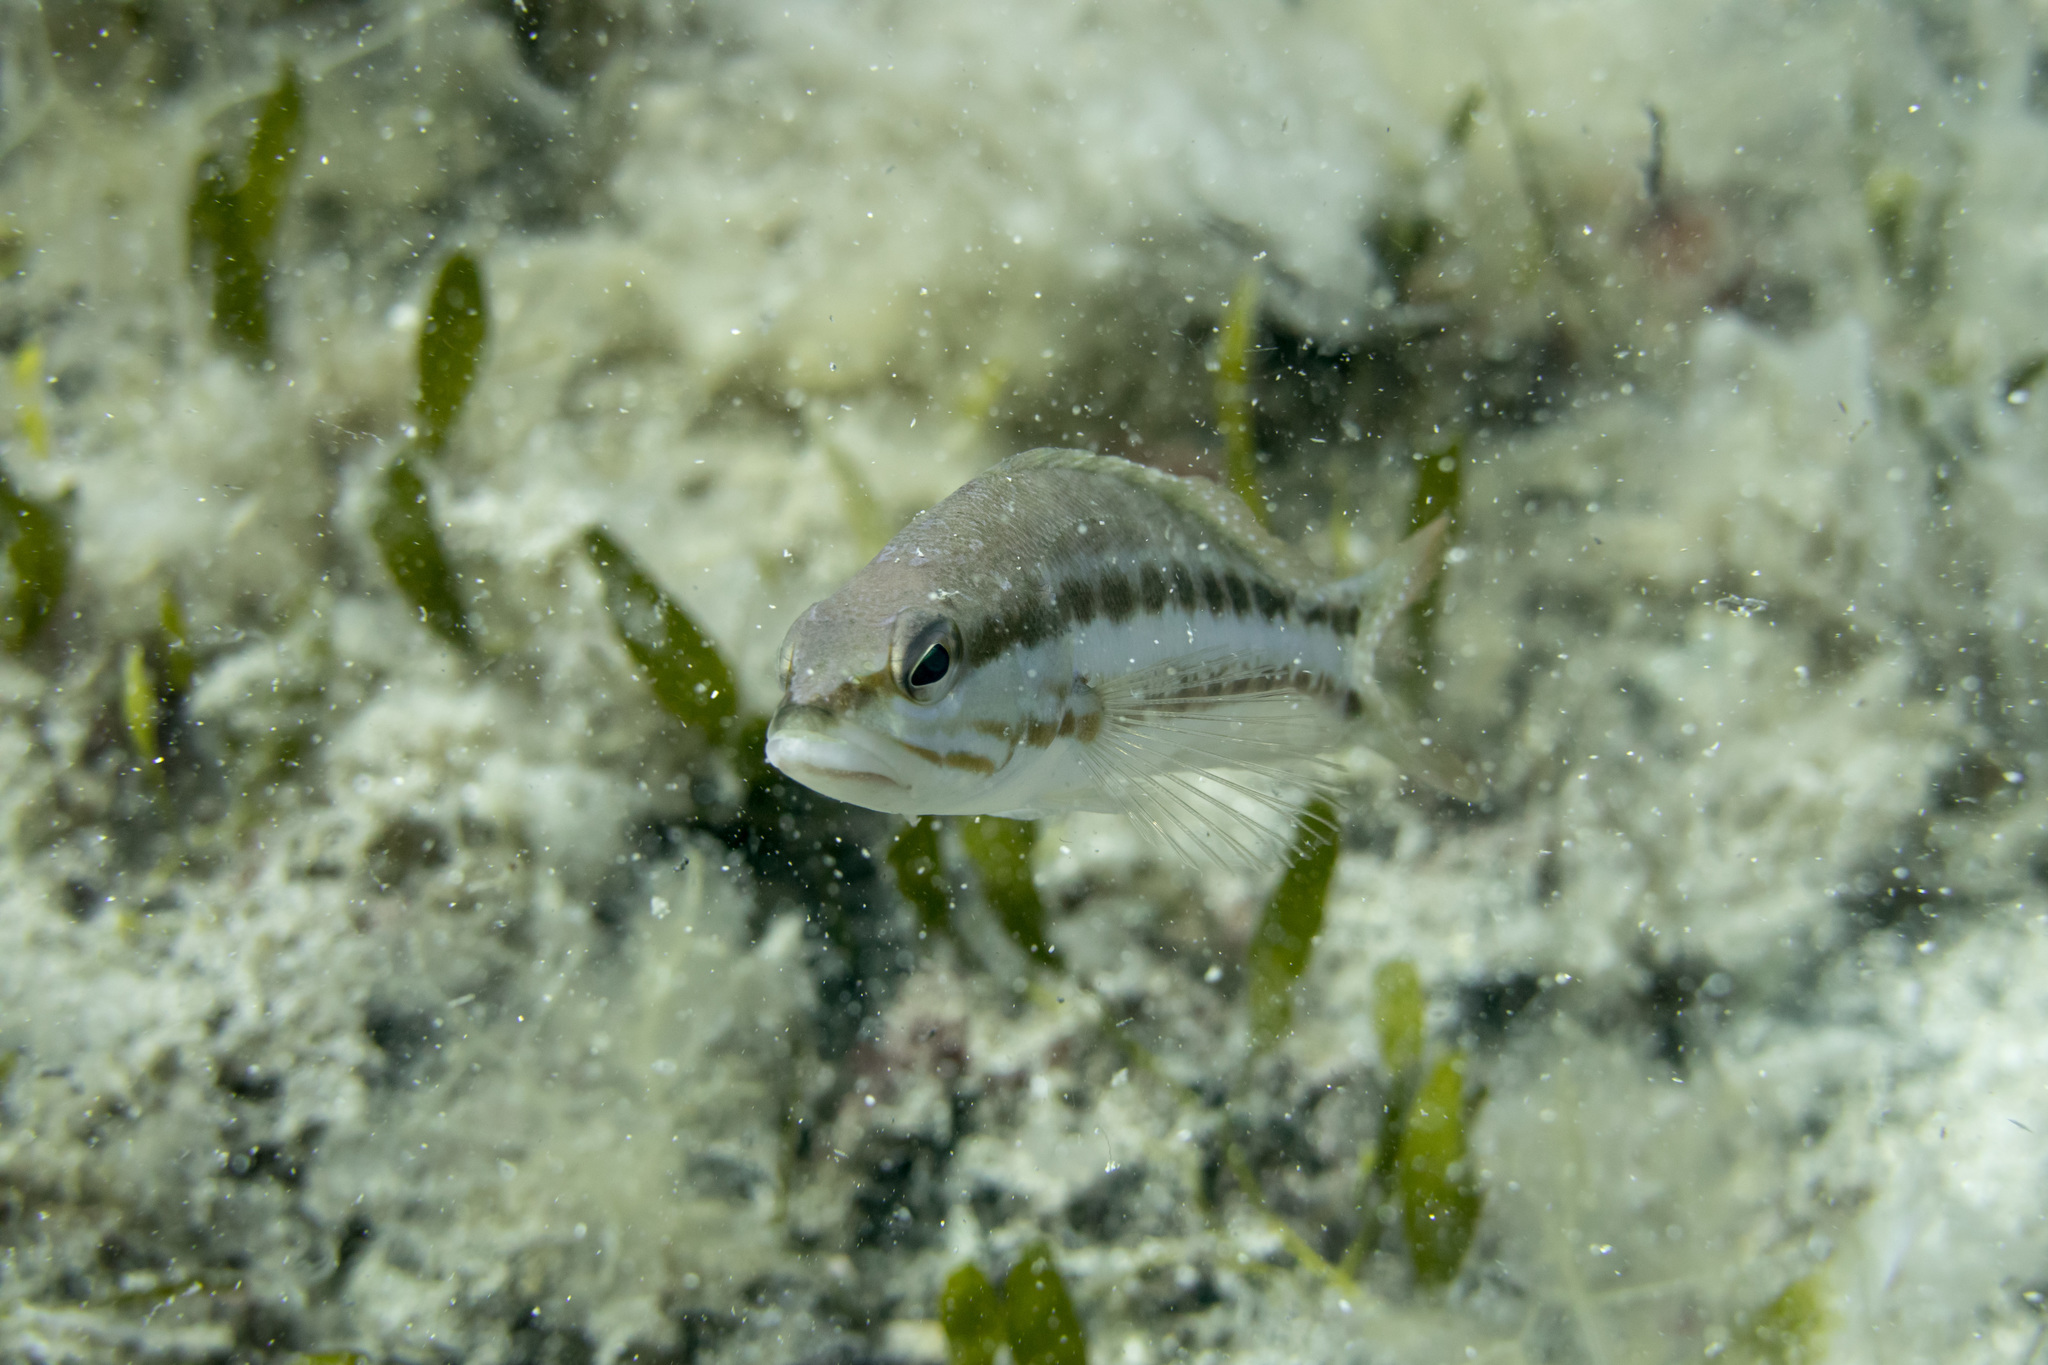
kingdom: Animalia
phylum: Chordata
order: Perciformes
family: Serranidae
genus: Serranus
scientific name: Serranus cabrilla
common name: Comber
